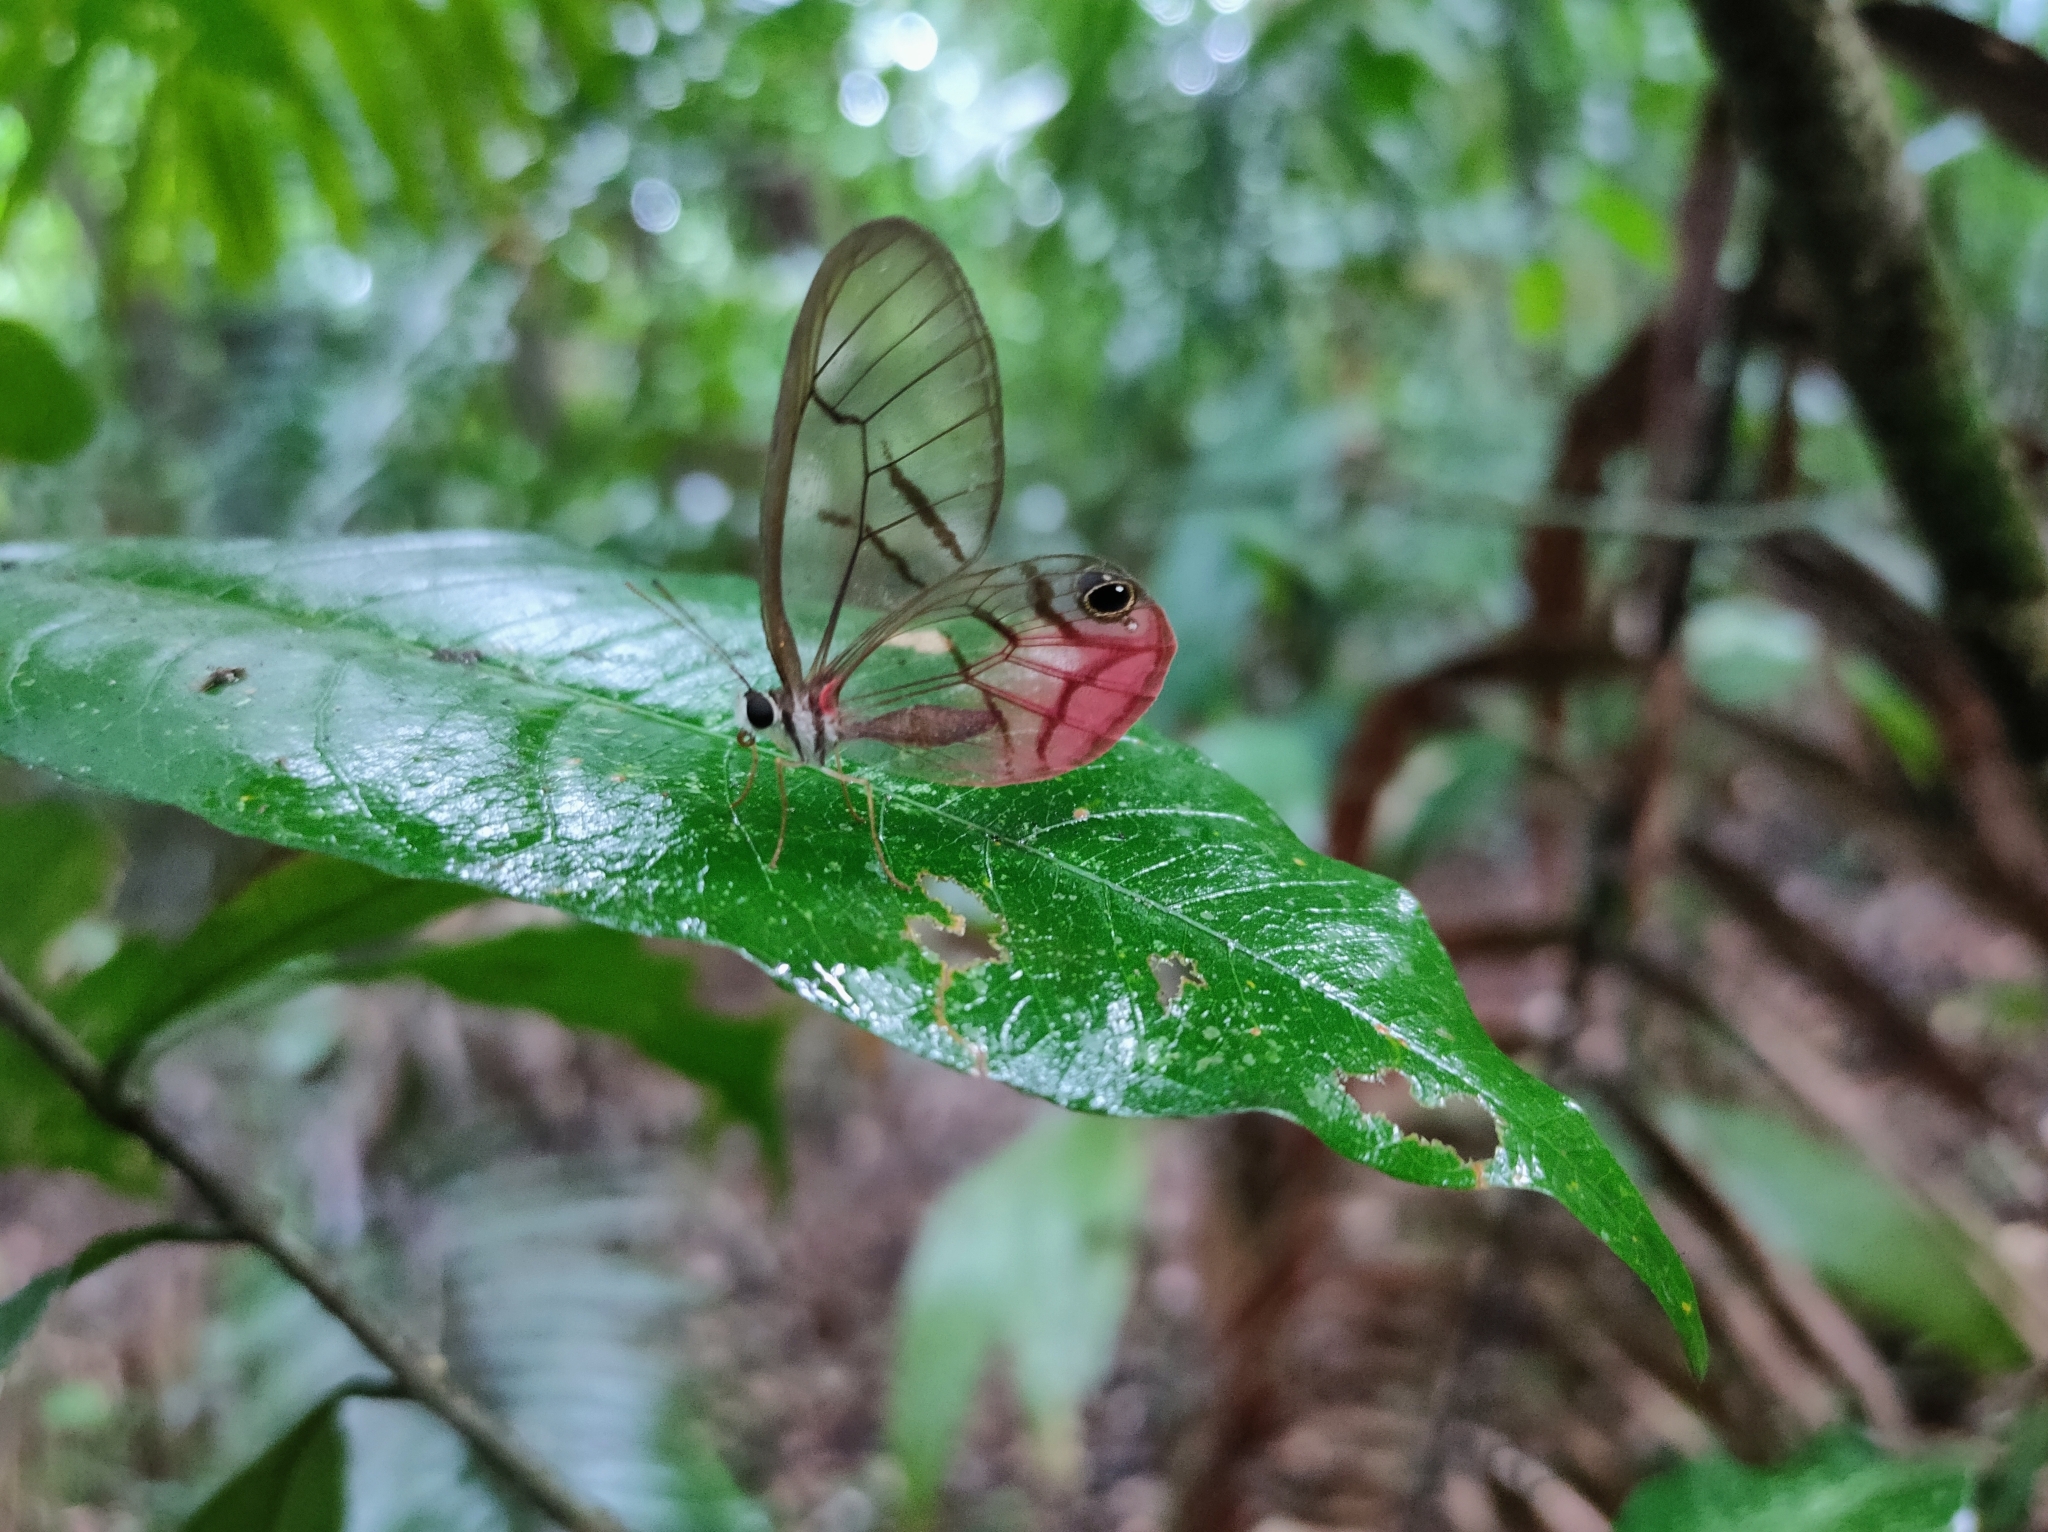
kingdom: Animalia
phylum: Arthropoda
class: Insecta
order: Lepidoptera
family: Nymphalidae
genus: Cithaerias
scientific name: Cithaerias pireta
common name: Rusted clearwing-satyr
